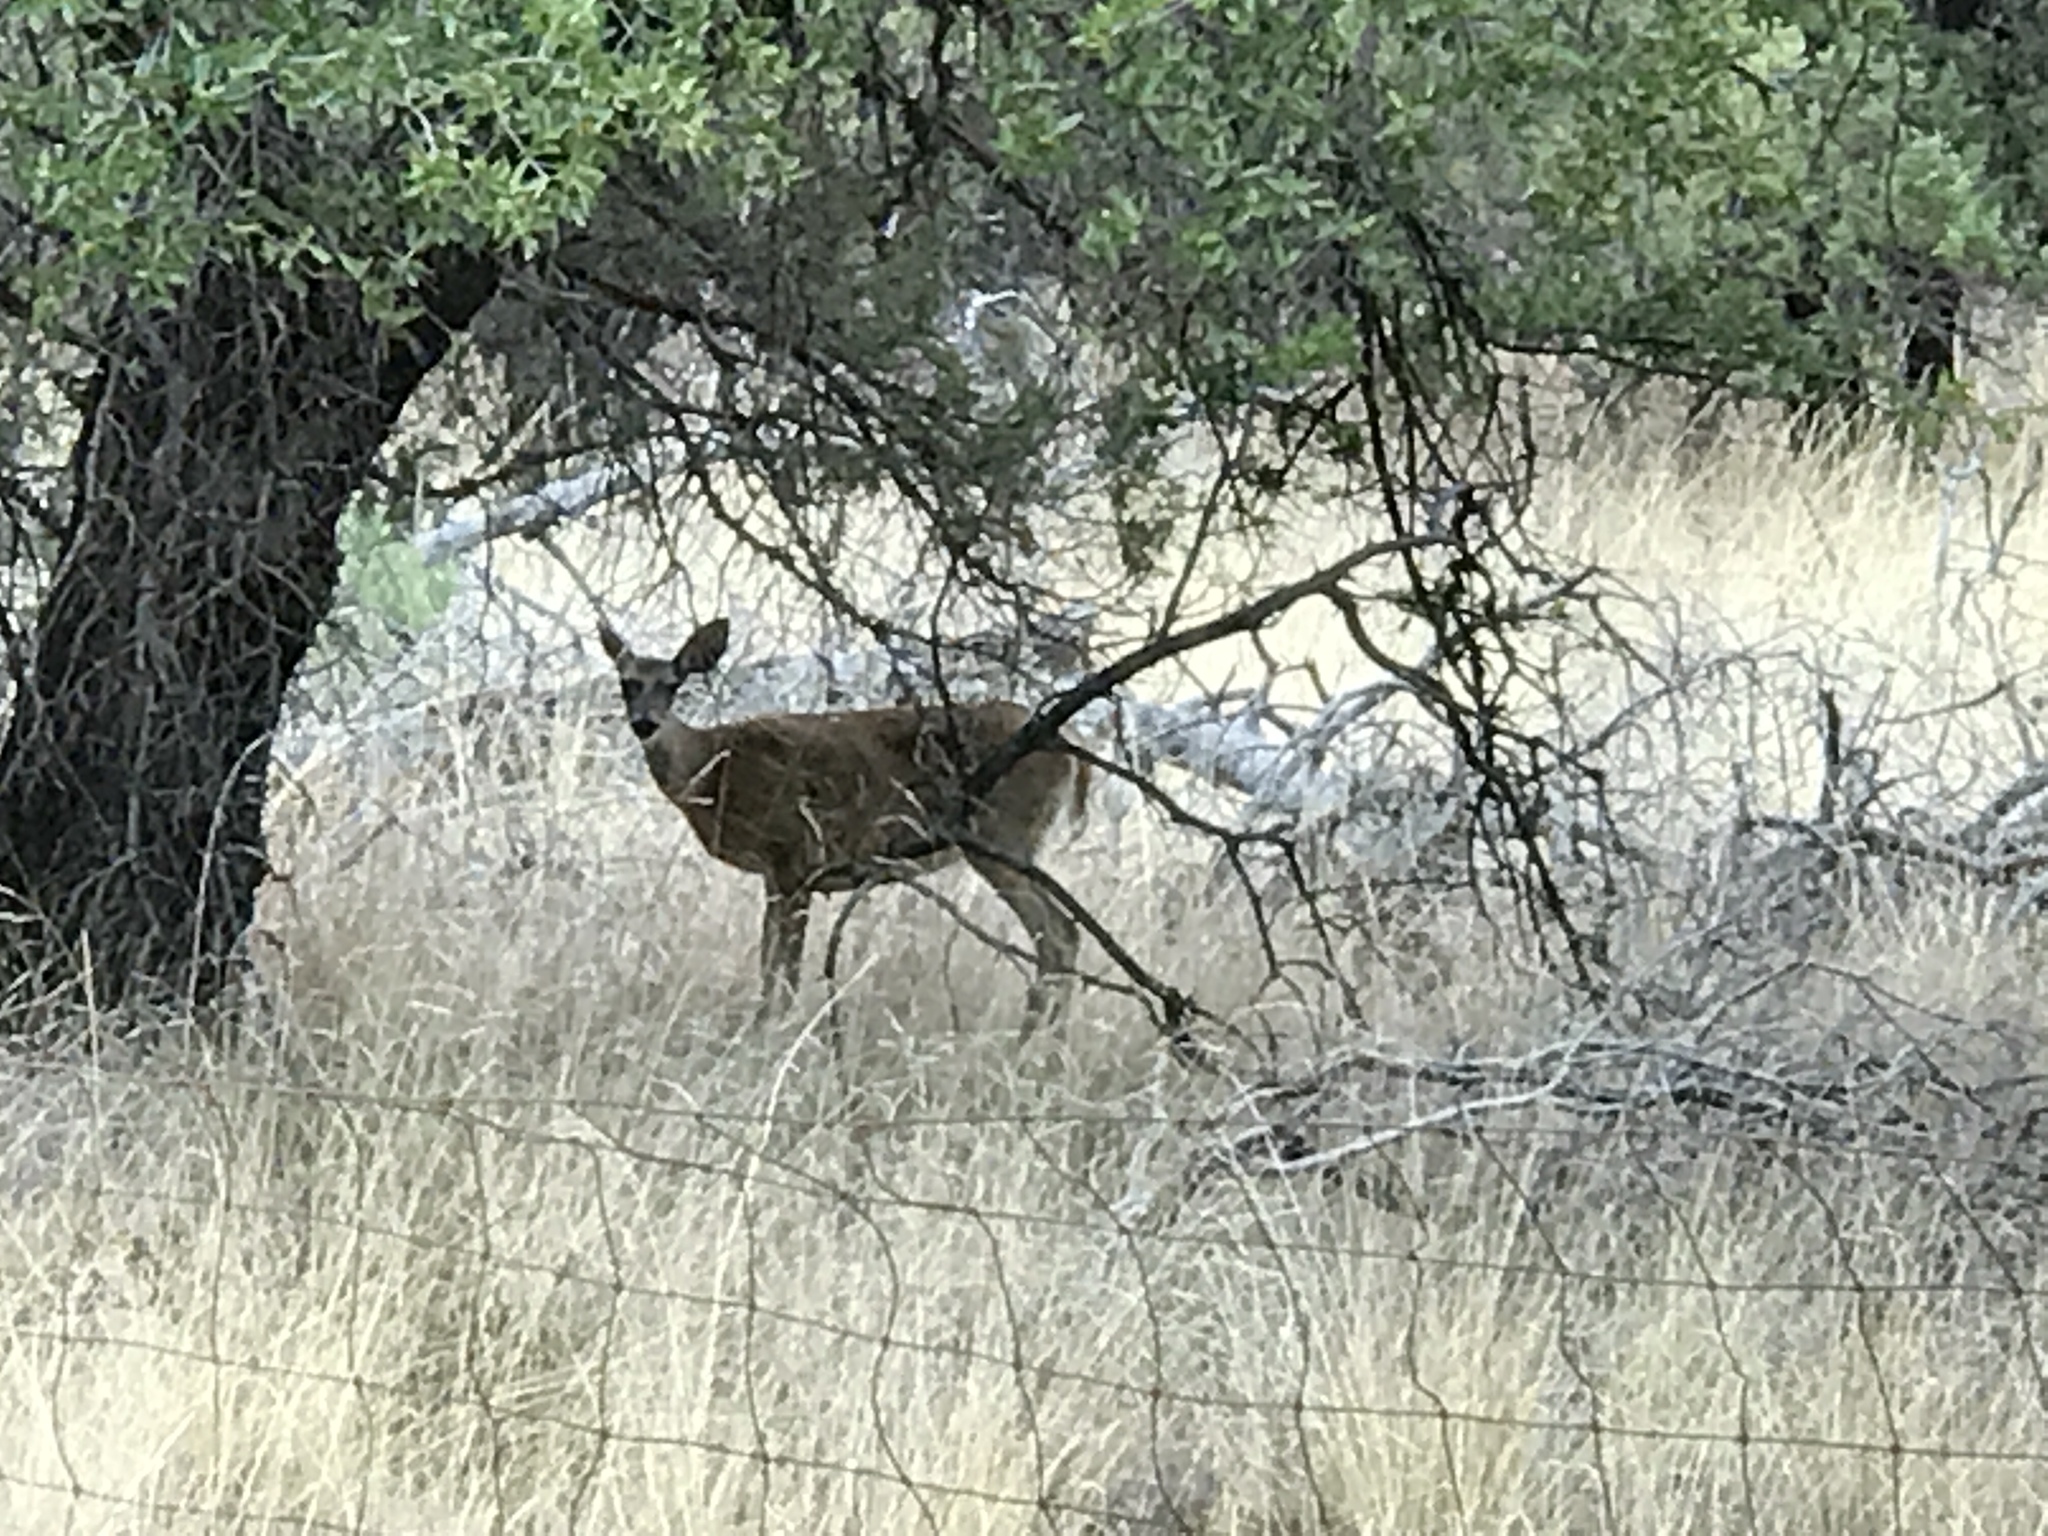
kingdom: Animalia
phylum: Chordata
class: Mammalia
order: Artiodactyla
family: Cervidae
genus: Odocoileus
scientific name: Odocoileus virginianus
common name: White-tailed deer
